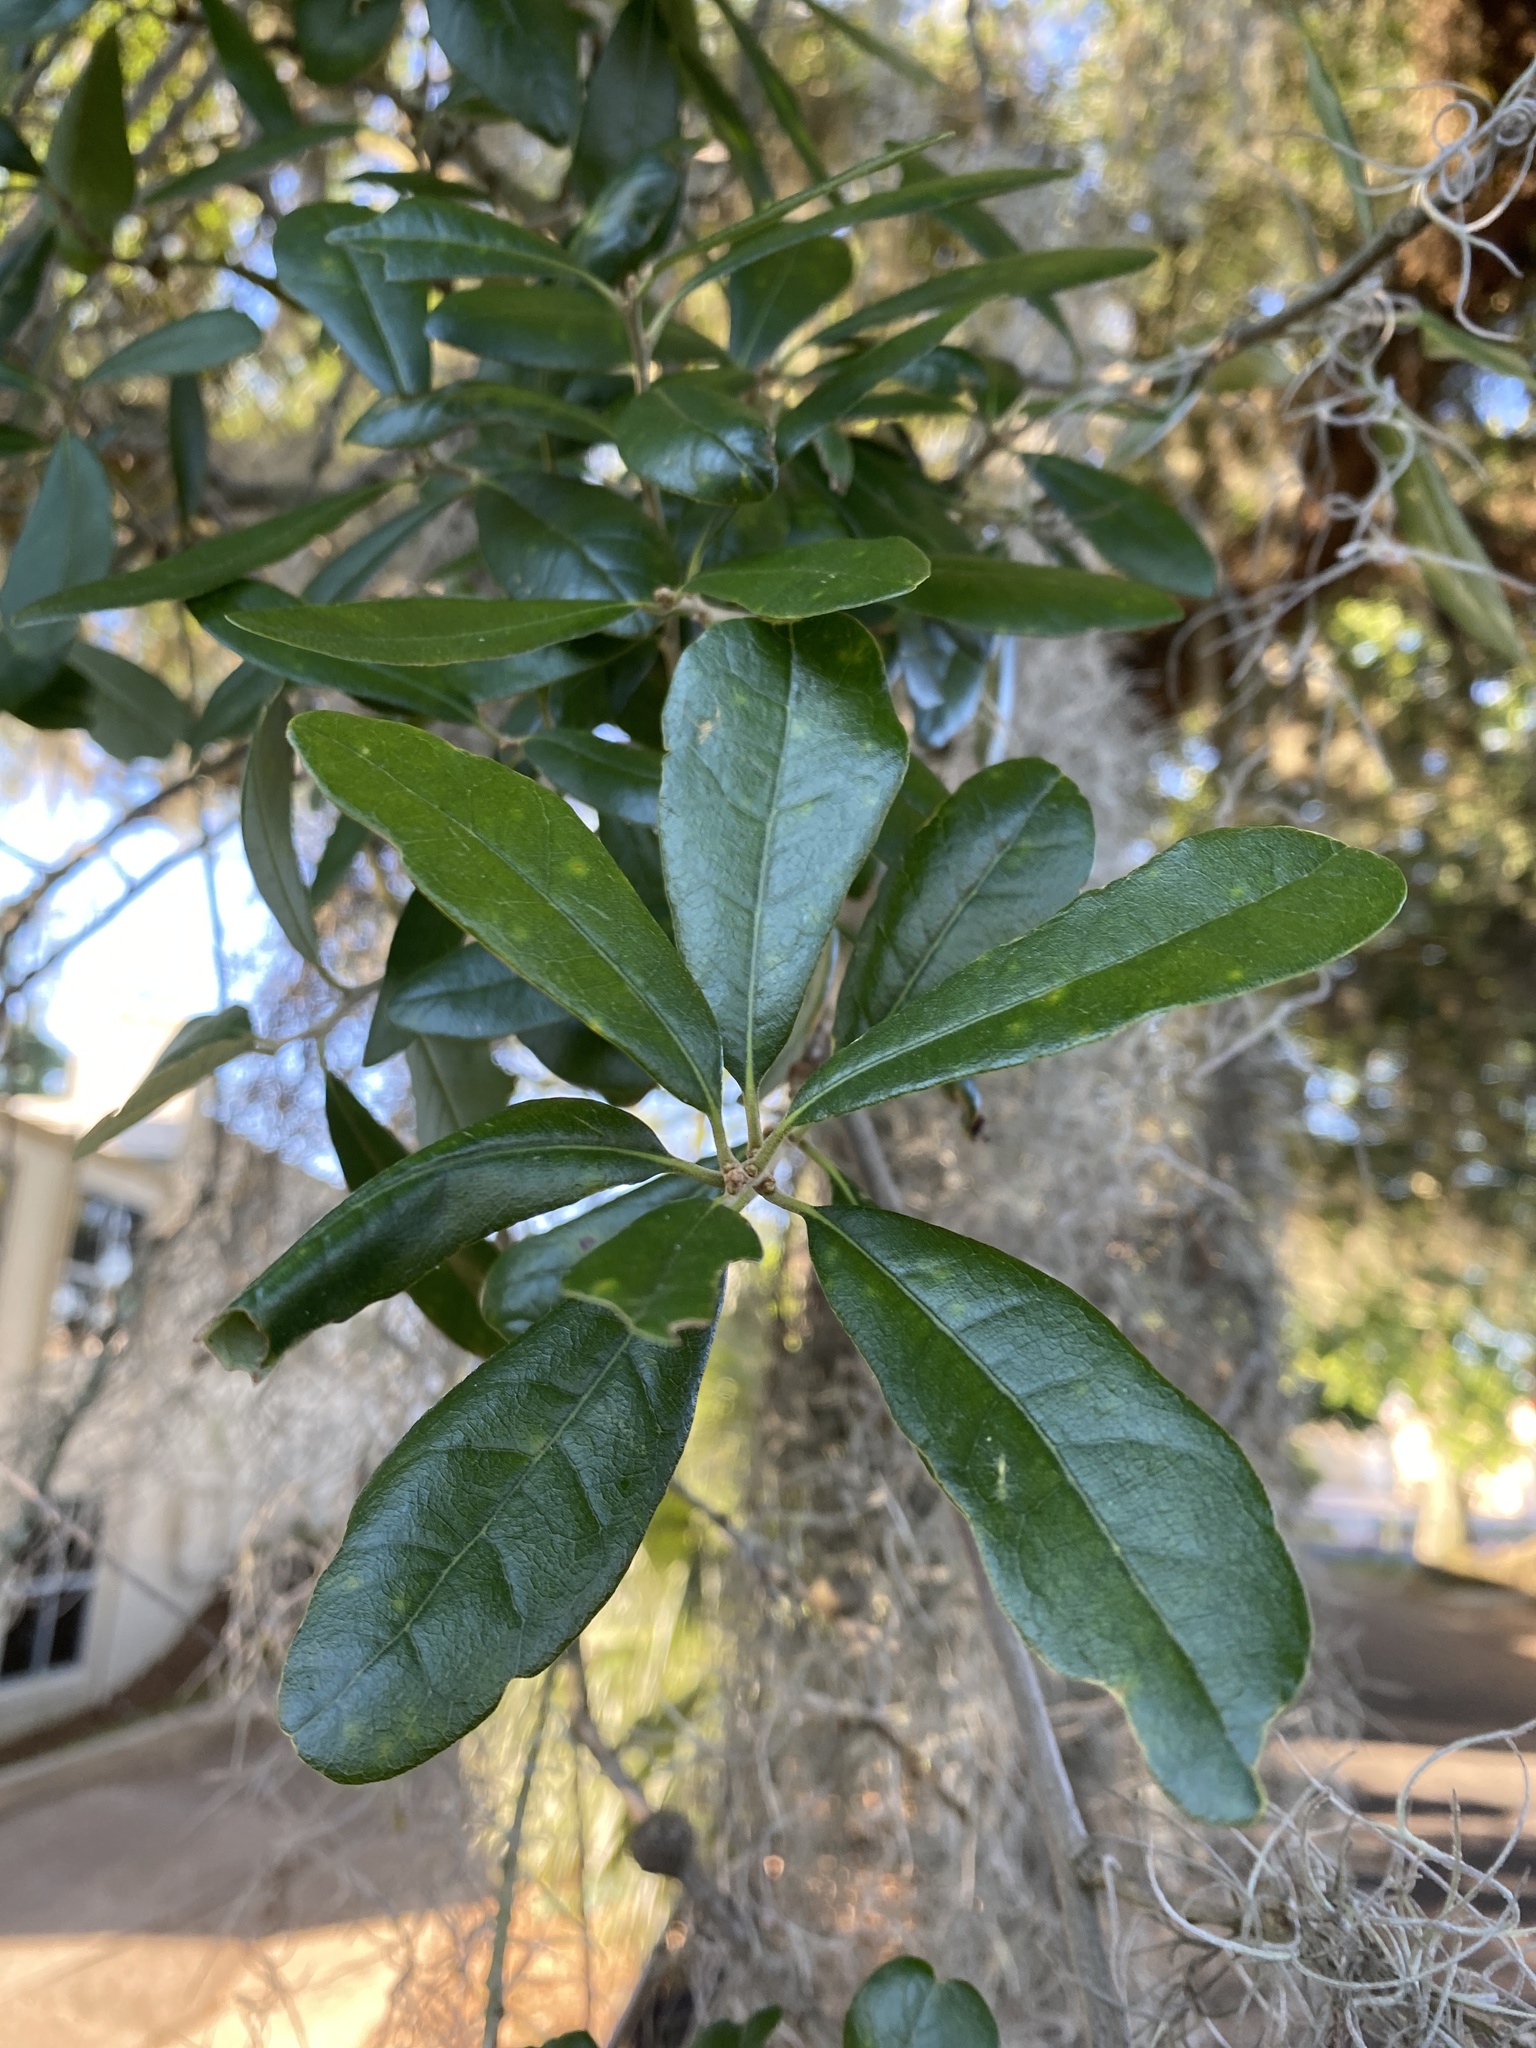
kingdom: Plantae
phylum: Tracheophyta
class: Magnoliopsida
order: Fagales
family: Fagaceae
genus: Quercus
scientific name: Quercus virginiana
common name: Southern live oak
